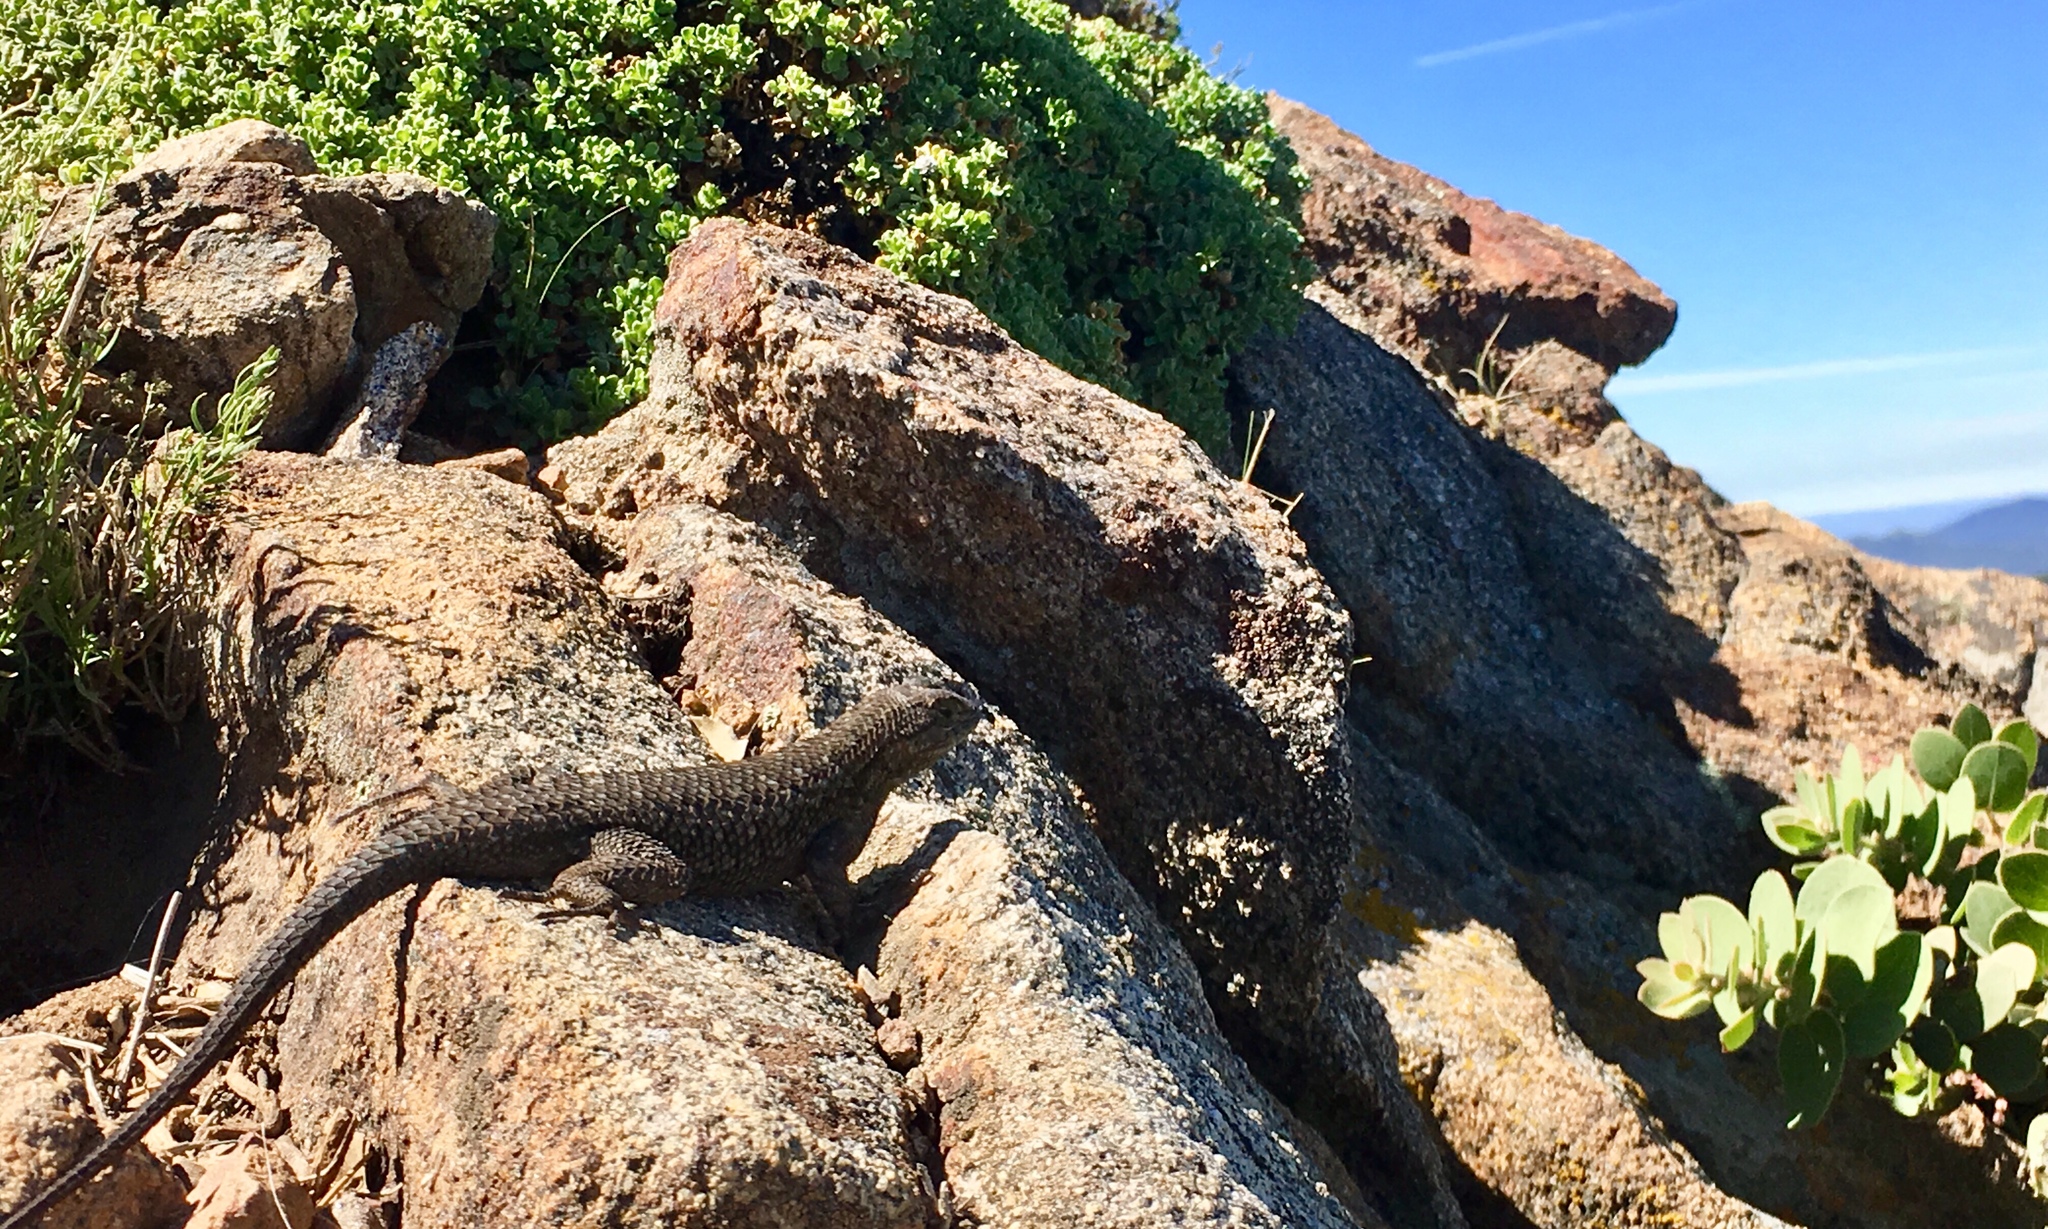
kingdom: Animalia
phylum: Chordata
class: Squamata
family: Phrynosomatidae
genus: Sceloporus
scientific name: Sceloporus occidentalis
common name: Western fence lizard
